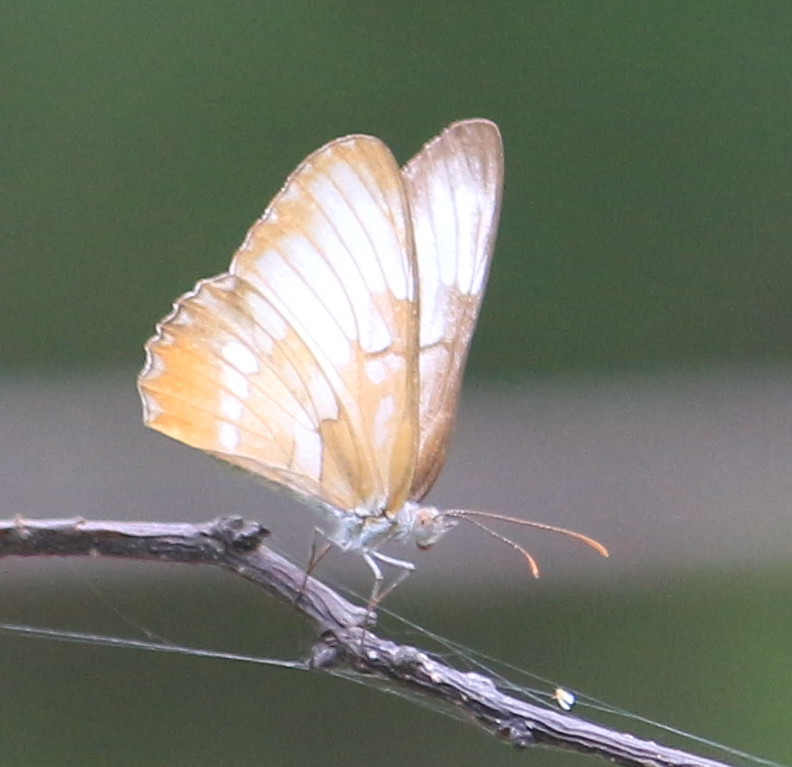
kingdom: Animalia
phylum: Arthropoda
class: Insecta
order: Lepidoptera
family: Nymphalidae
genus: Mestra
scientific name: Mestra amymone
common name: Common mestra
